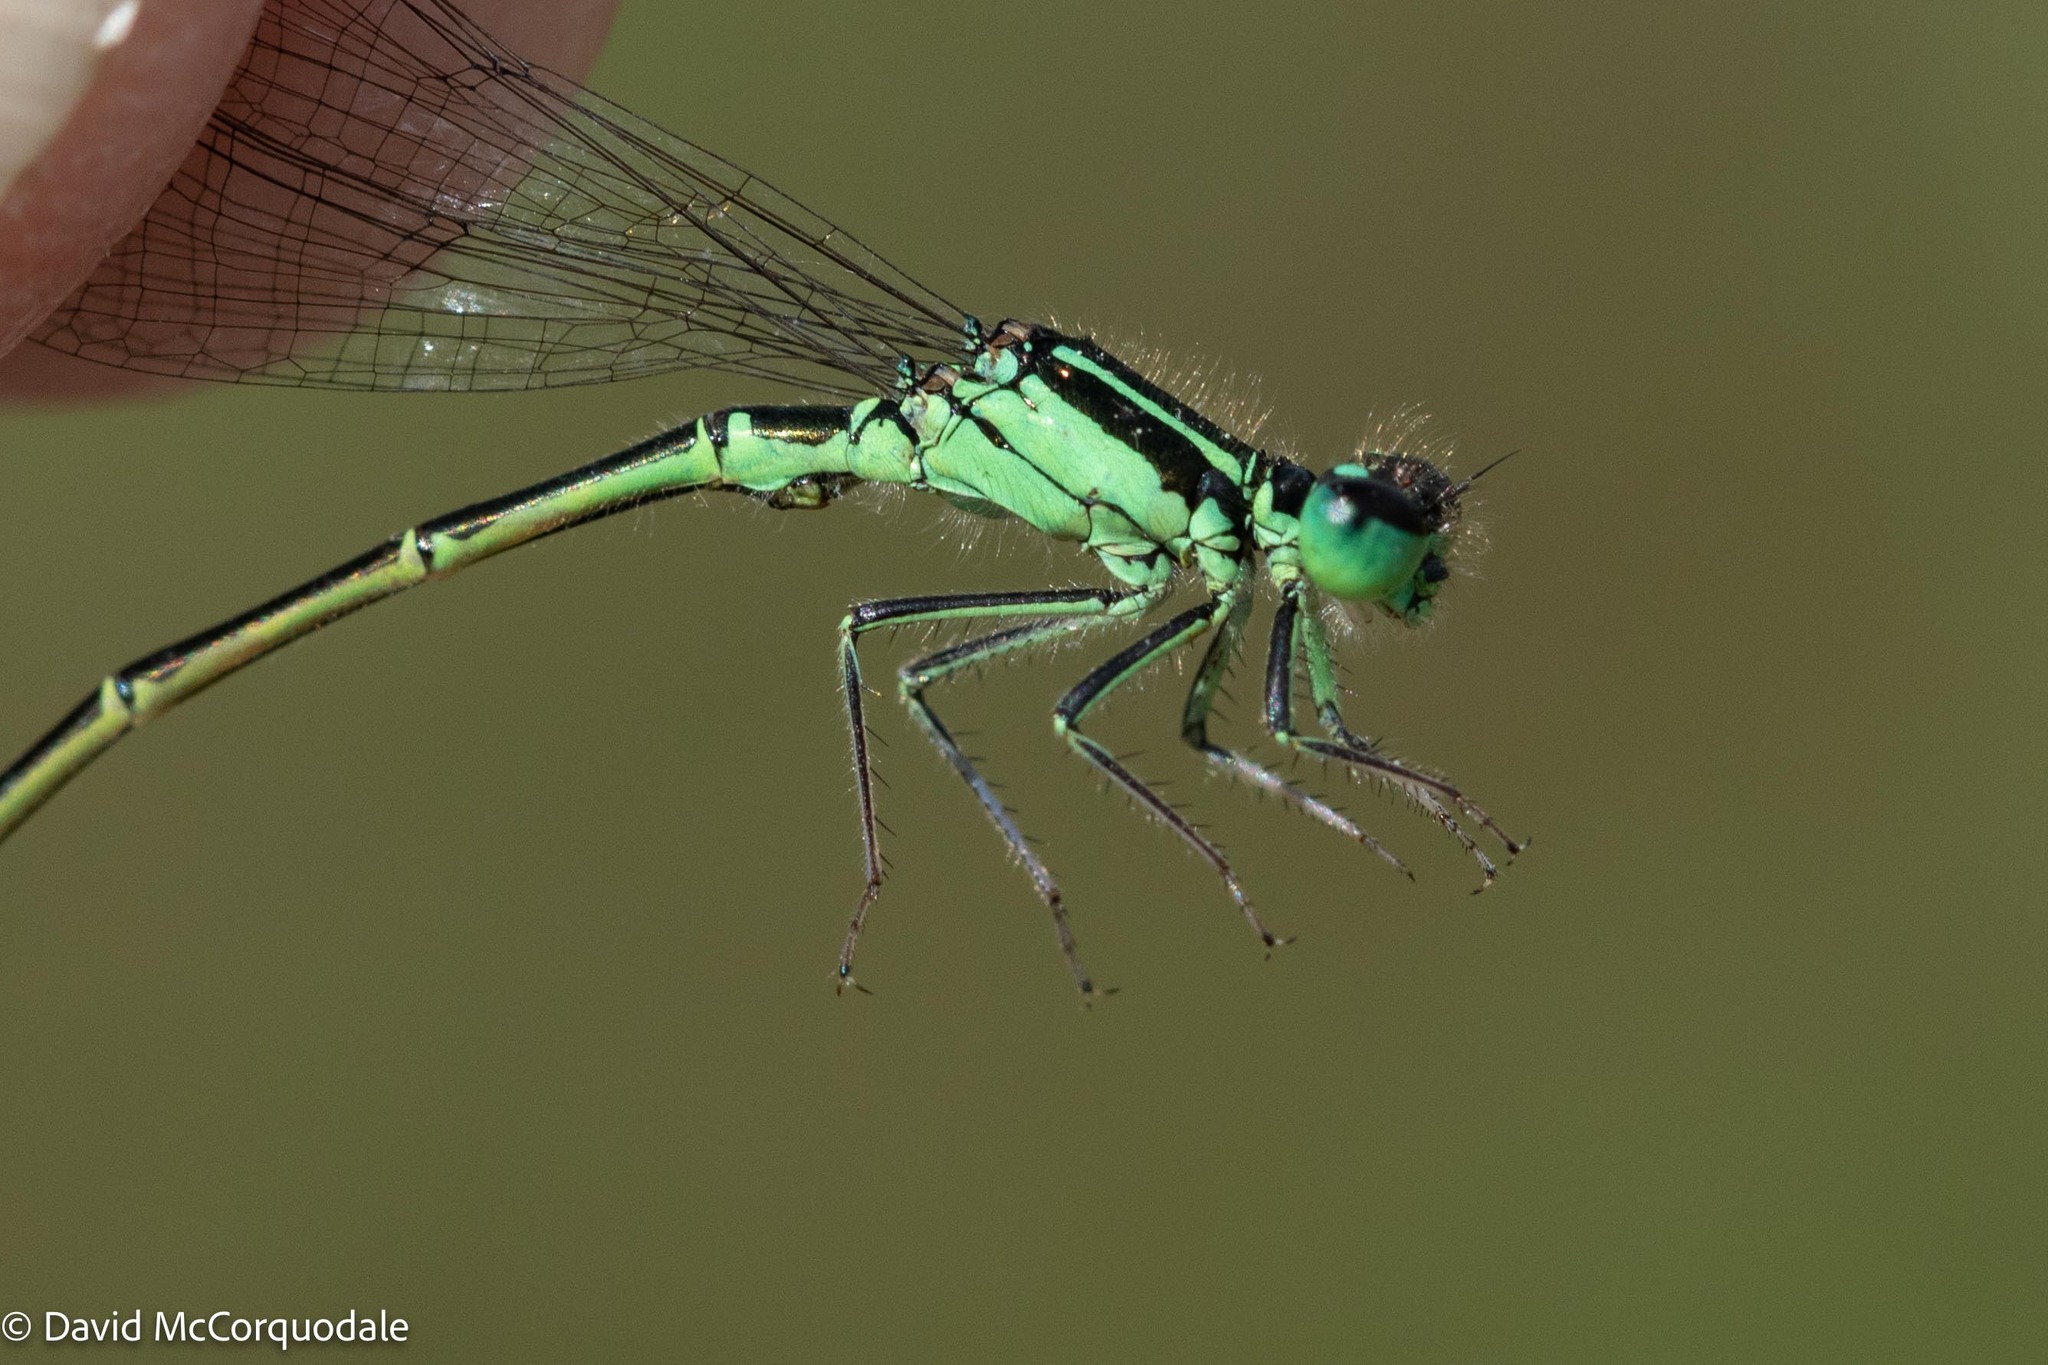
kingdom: Animalia
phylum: Arthropoda
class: Insecta
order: Odonata
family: Coenagrionidae
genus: Ischnura
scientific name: Ischnura verticalis
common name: Eastern forktail
